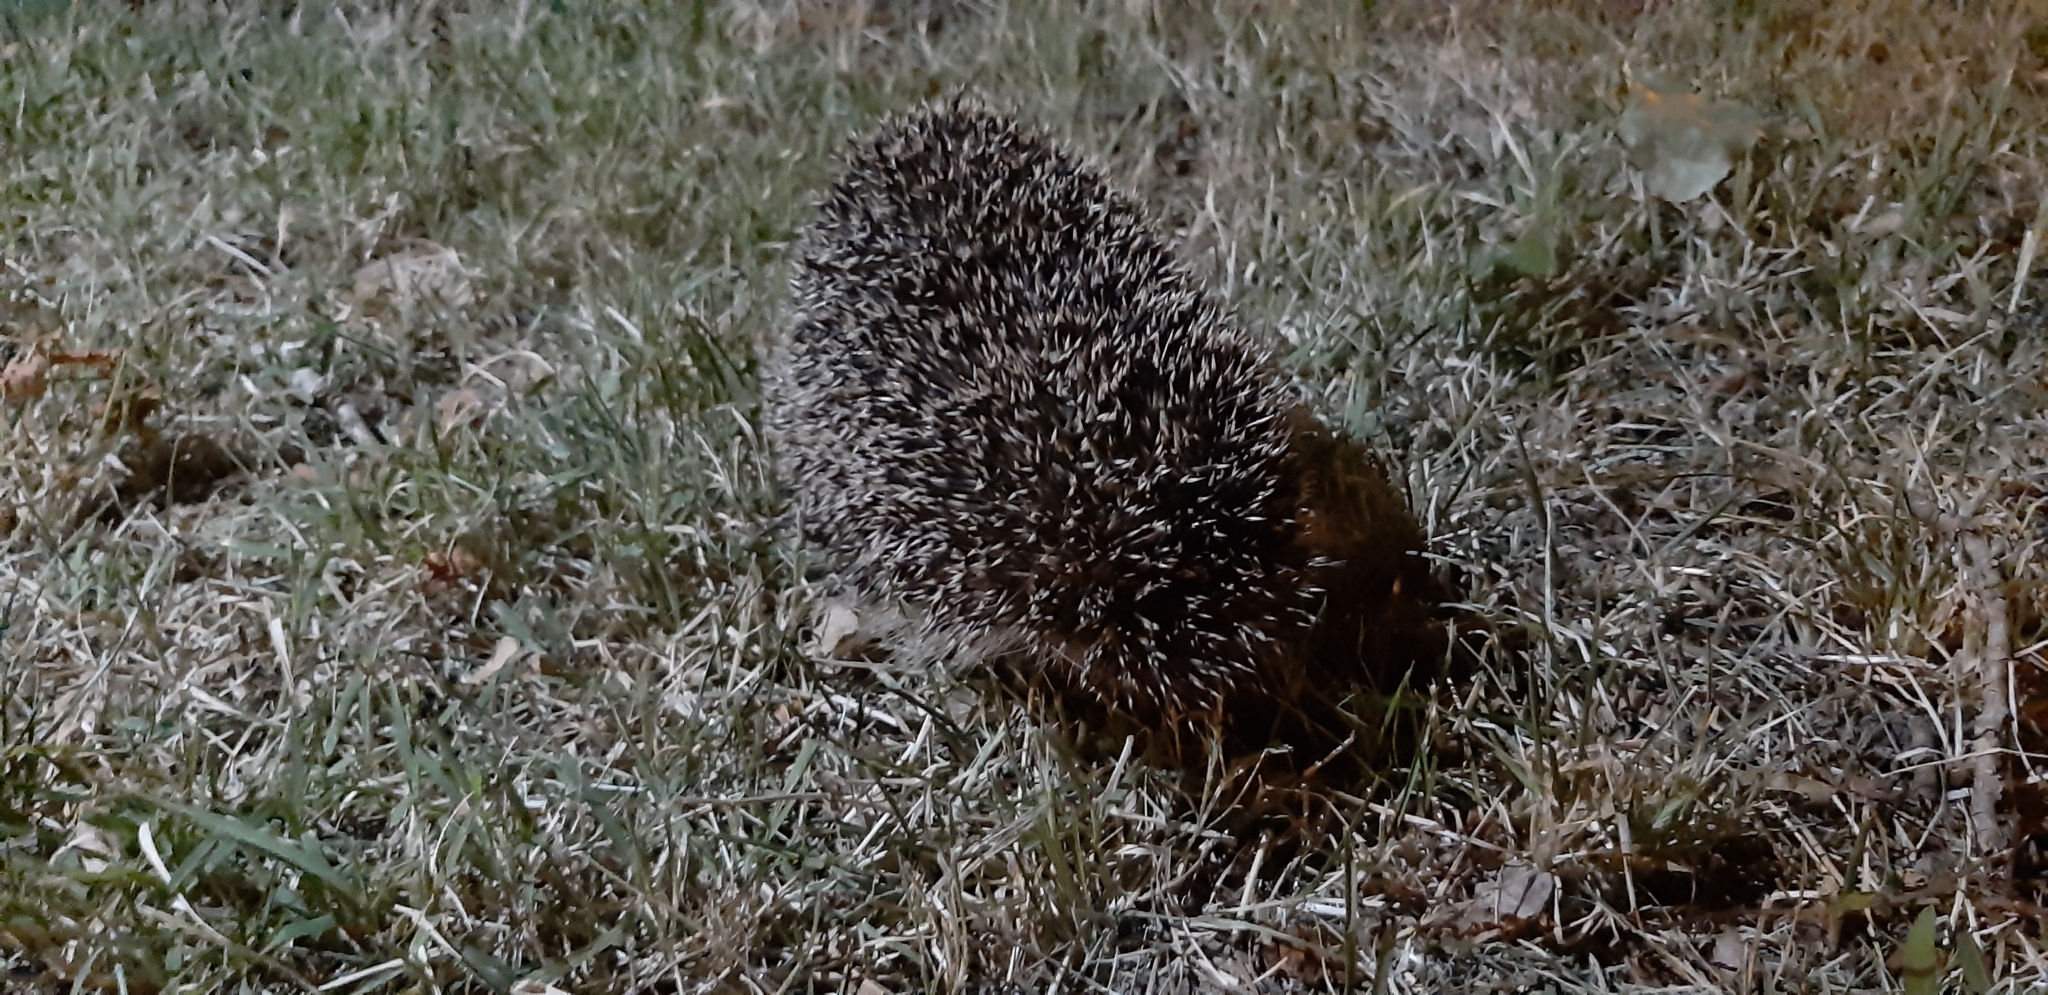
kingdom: Animalia
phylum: Chordata
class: Mammalia
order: Erinaceomorpha
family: Erinaceidae
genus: Erinaceus
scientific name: Erinaceus europaeus
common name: West european hedgehog
